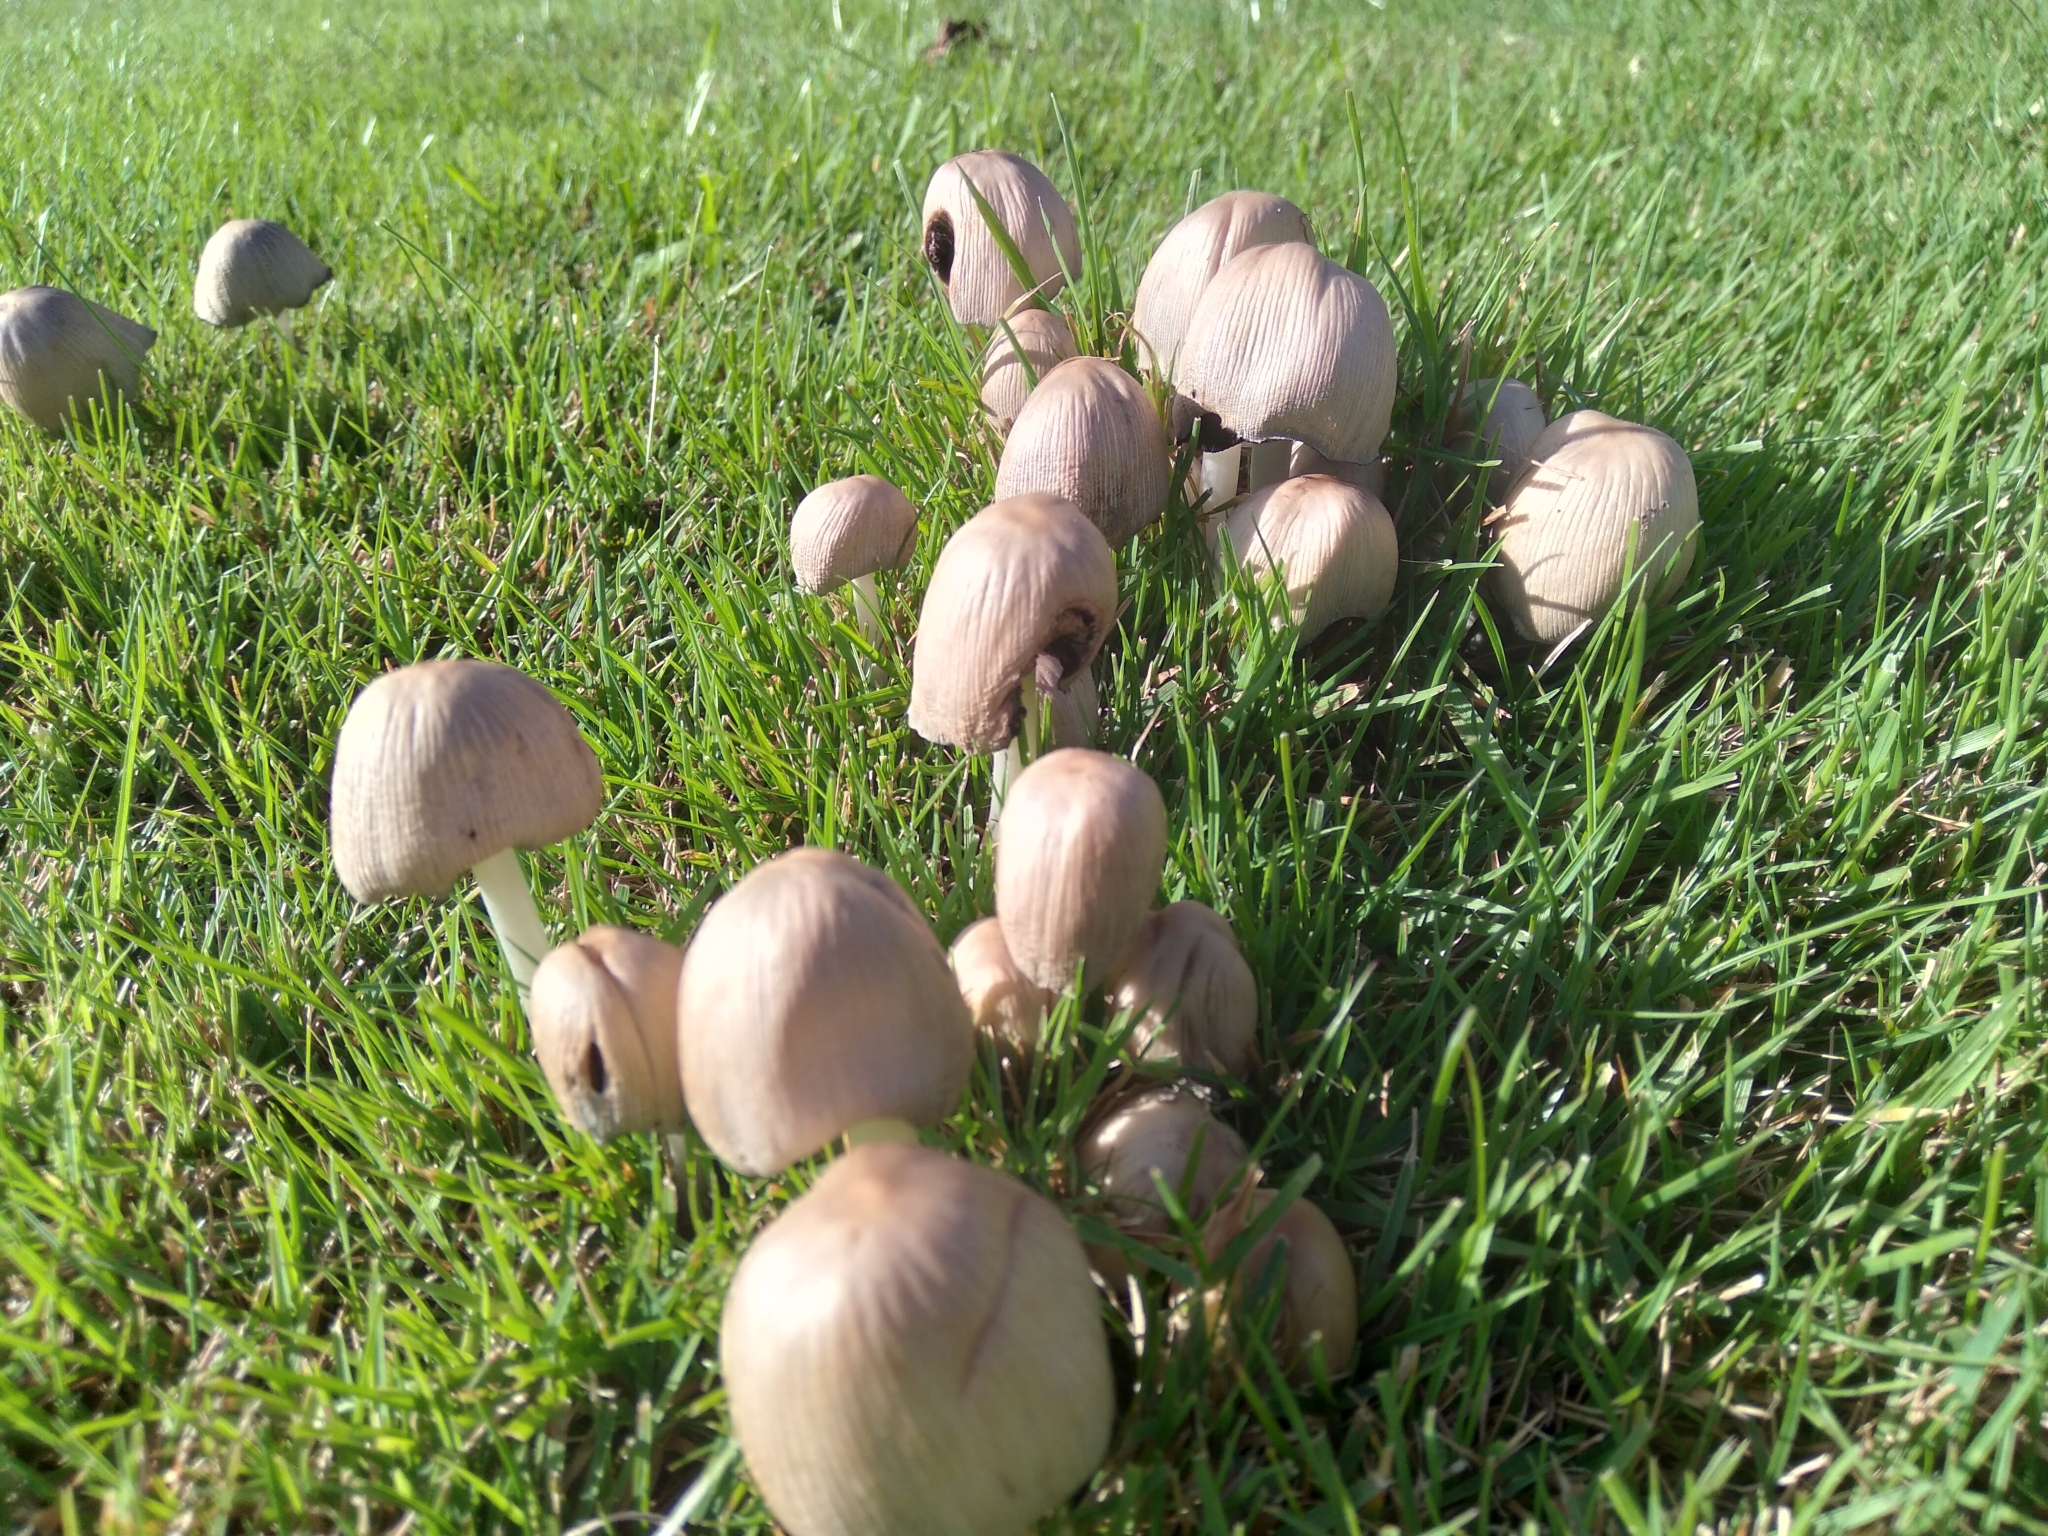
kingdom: Fungi
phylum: Basidiomycota
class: Agaricomycetes
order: Agaricales
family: Psathyrellaceae
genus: Coprinopsis
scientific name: Coprinopsis atramentaria
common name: Common ink-cap
